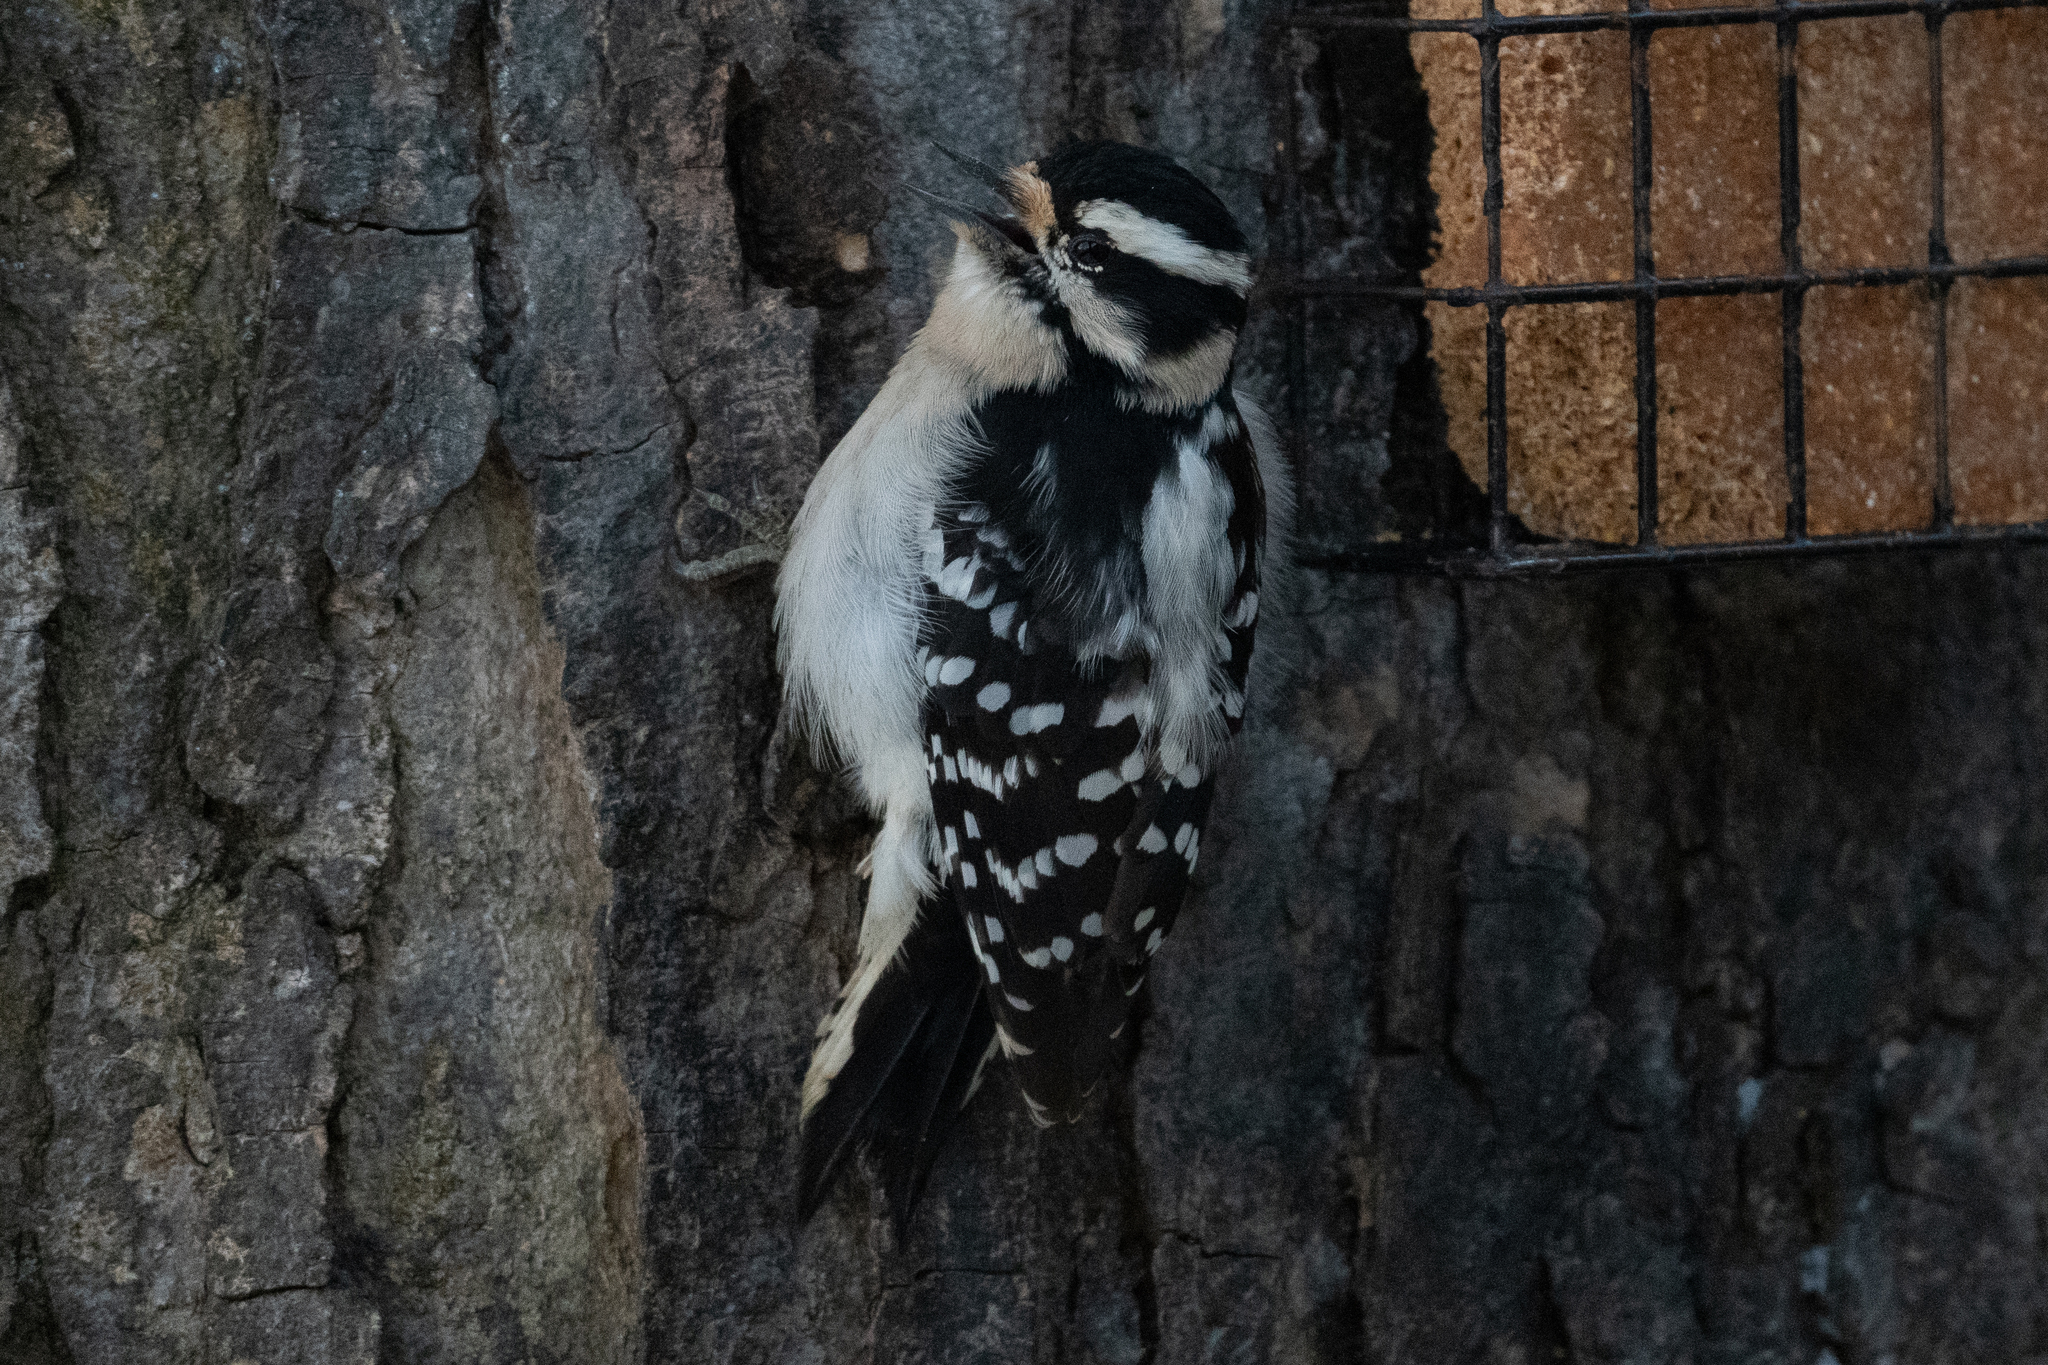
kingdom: Animalia
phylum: Chordata
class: Aves
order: Piciformes
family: Picidae
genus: Dryobates
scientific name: Dryobates pubescens
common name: Downy woodpecker
